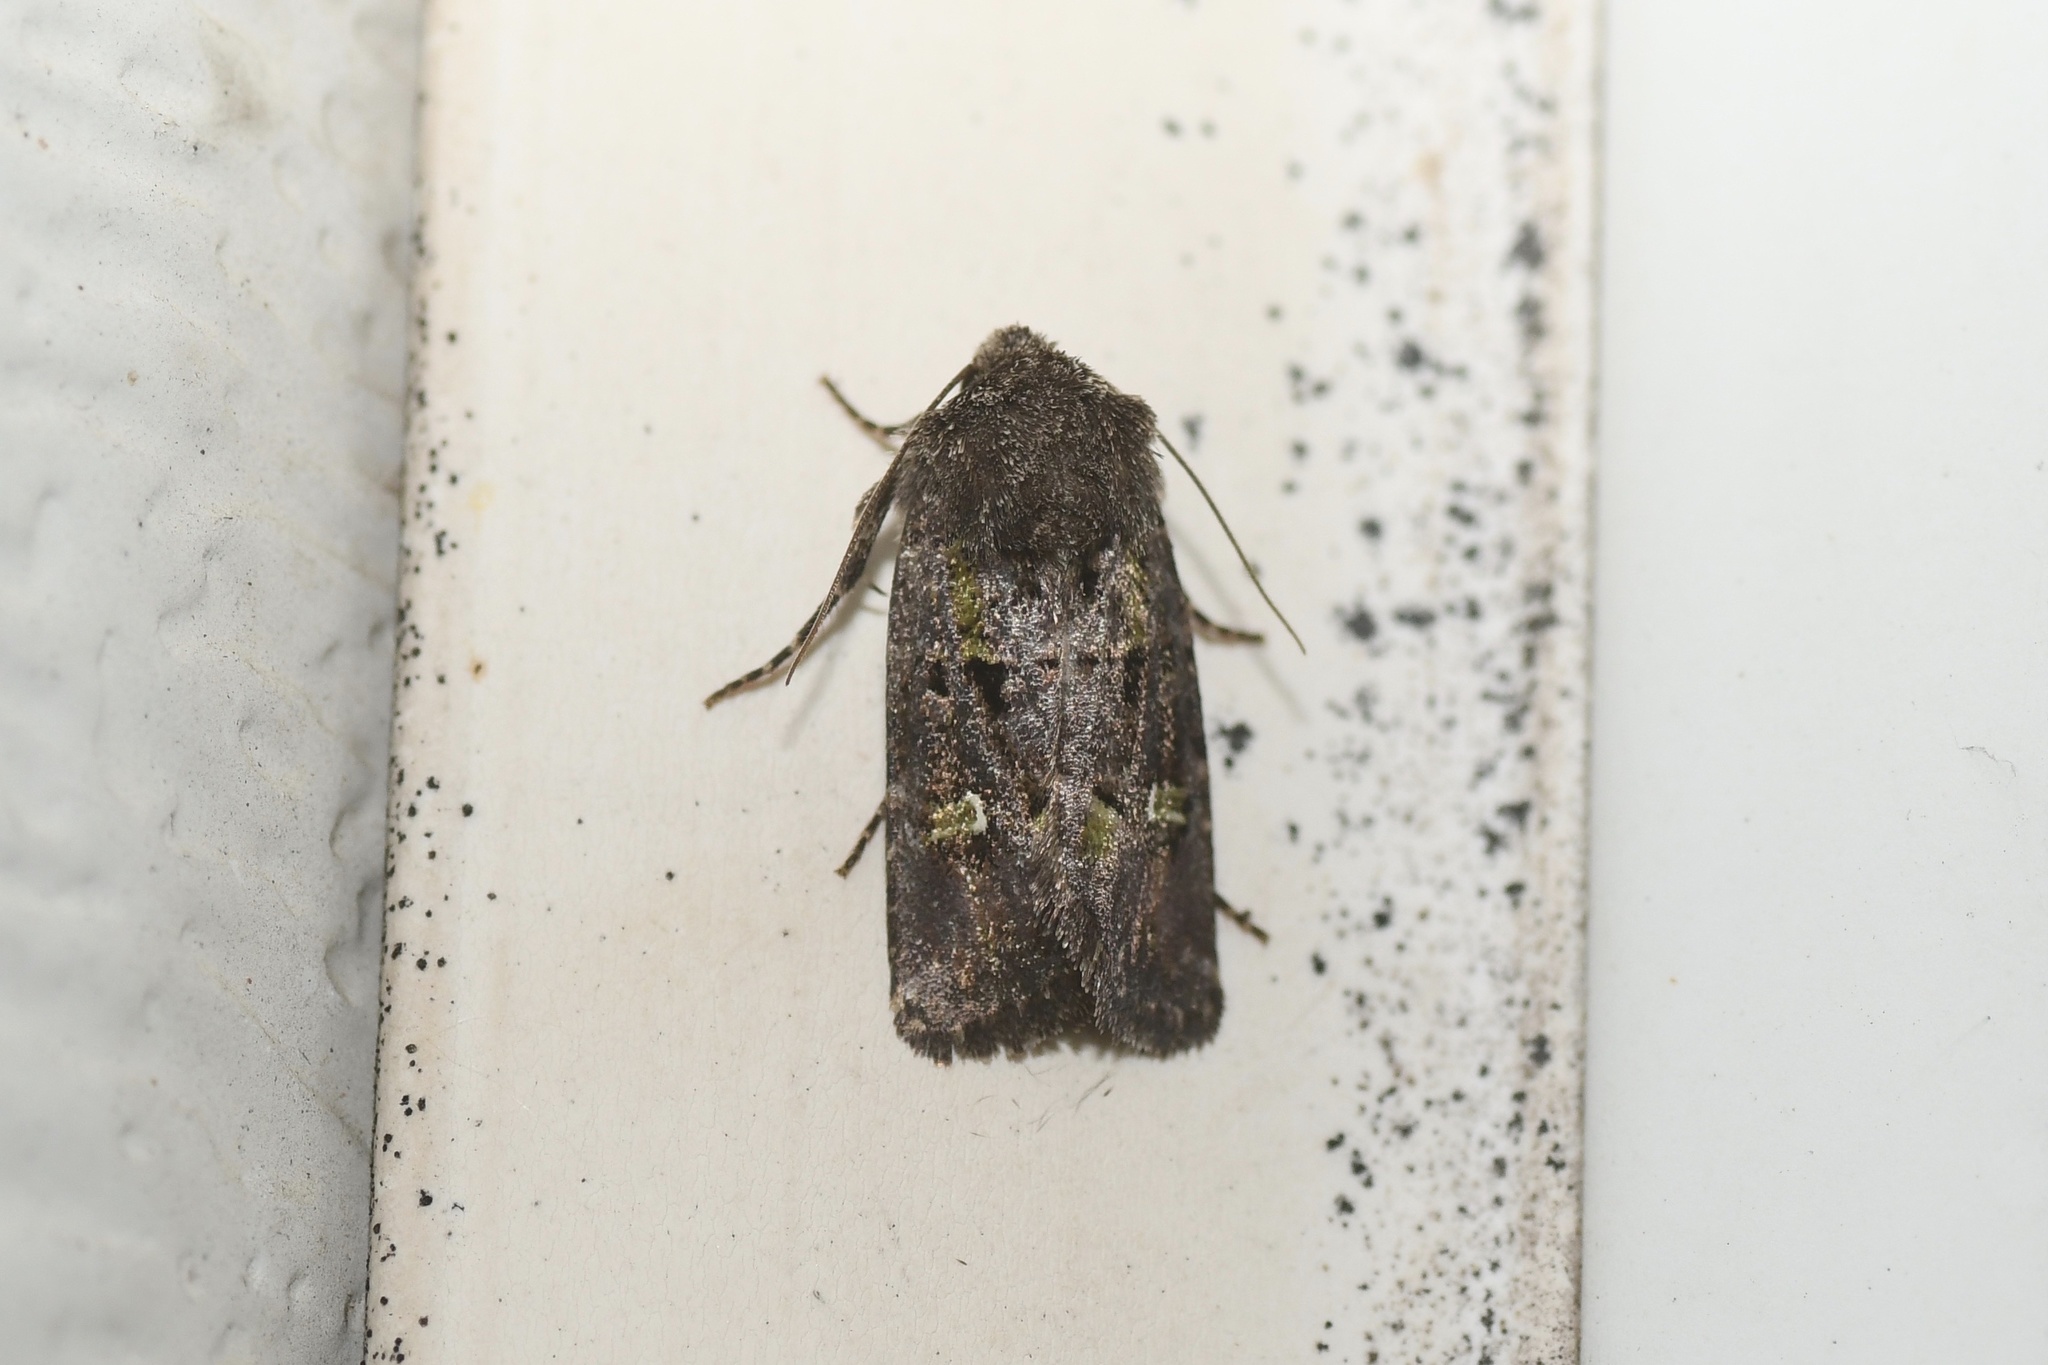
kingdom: Animalia
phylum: Arthropoda
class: Insecta
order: Lepidoptera
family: Noctuidae
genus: Lacinipolia
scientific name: Lacinipolia renigera
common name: Kidney-spotted minor
